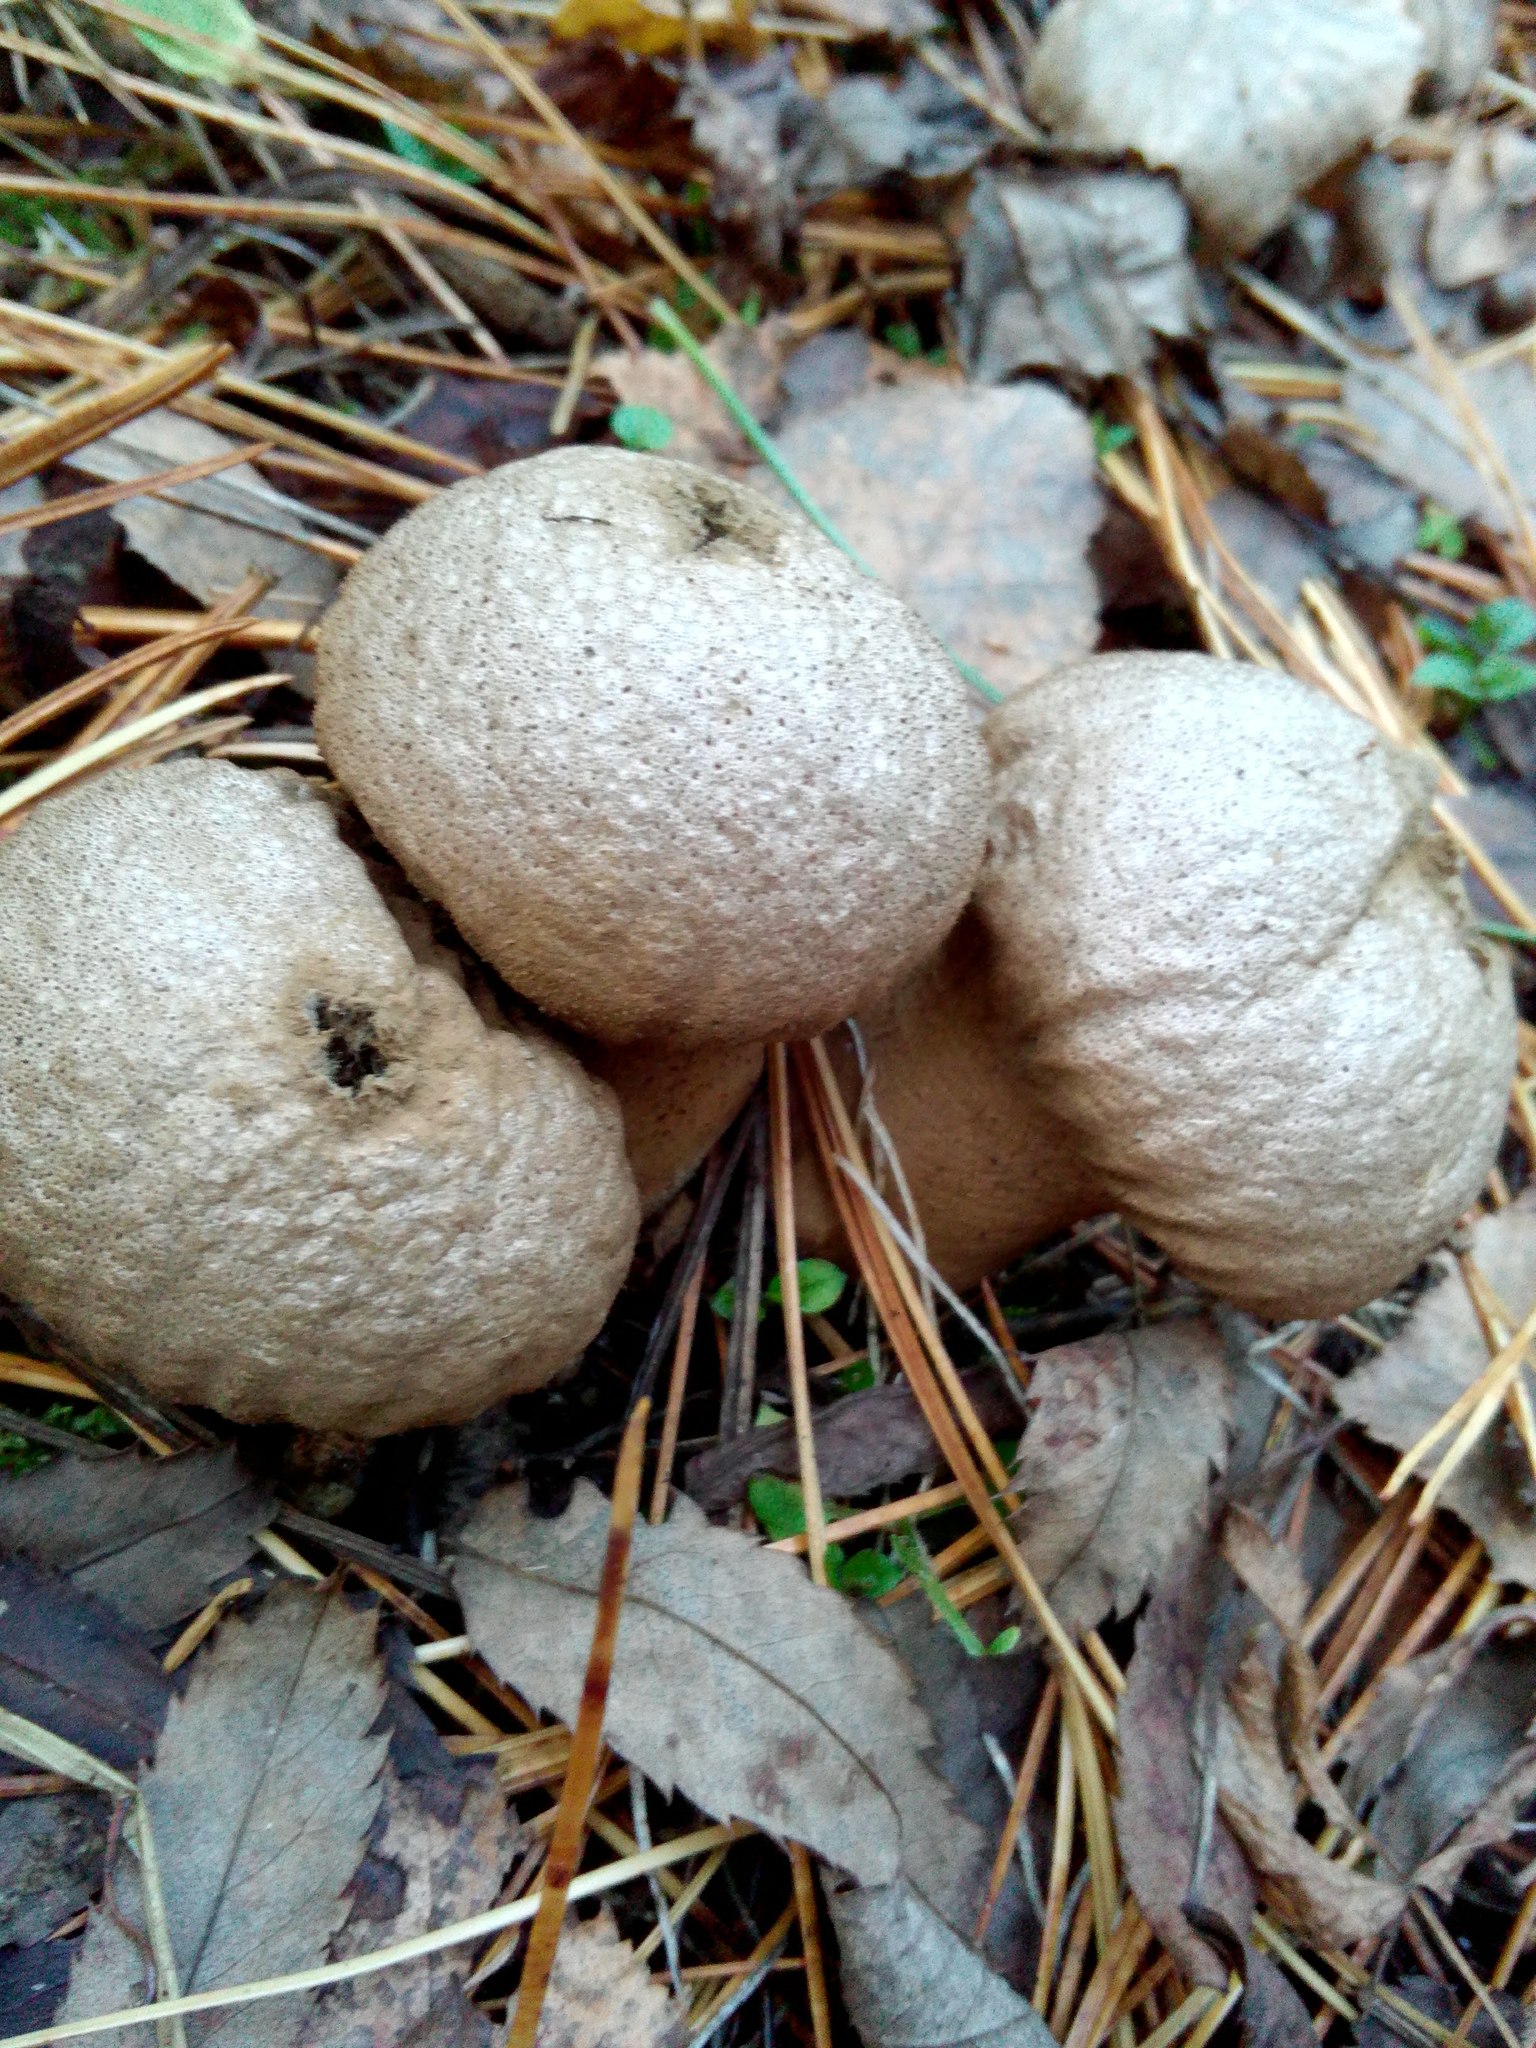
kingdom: Fungi
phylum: Basidiomycota
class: Agaricomycetes
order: Agaricales
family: Lycoperdaceae
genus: Lycoperdon
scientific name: Lycoperdon perlatum
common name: Common puffball
